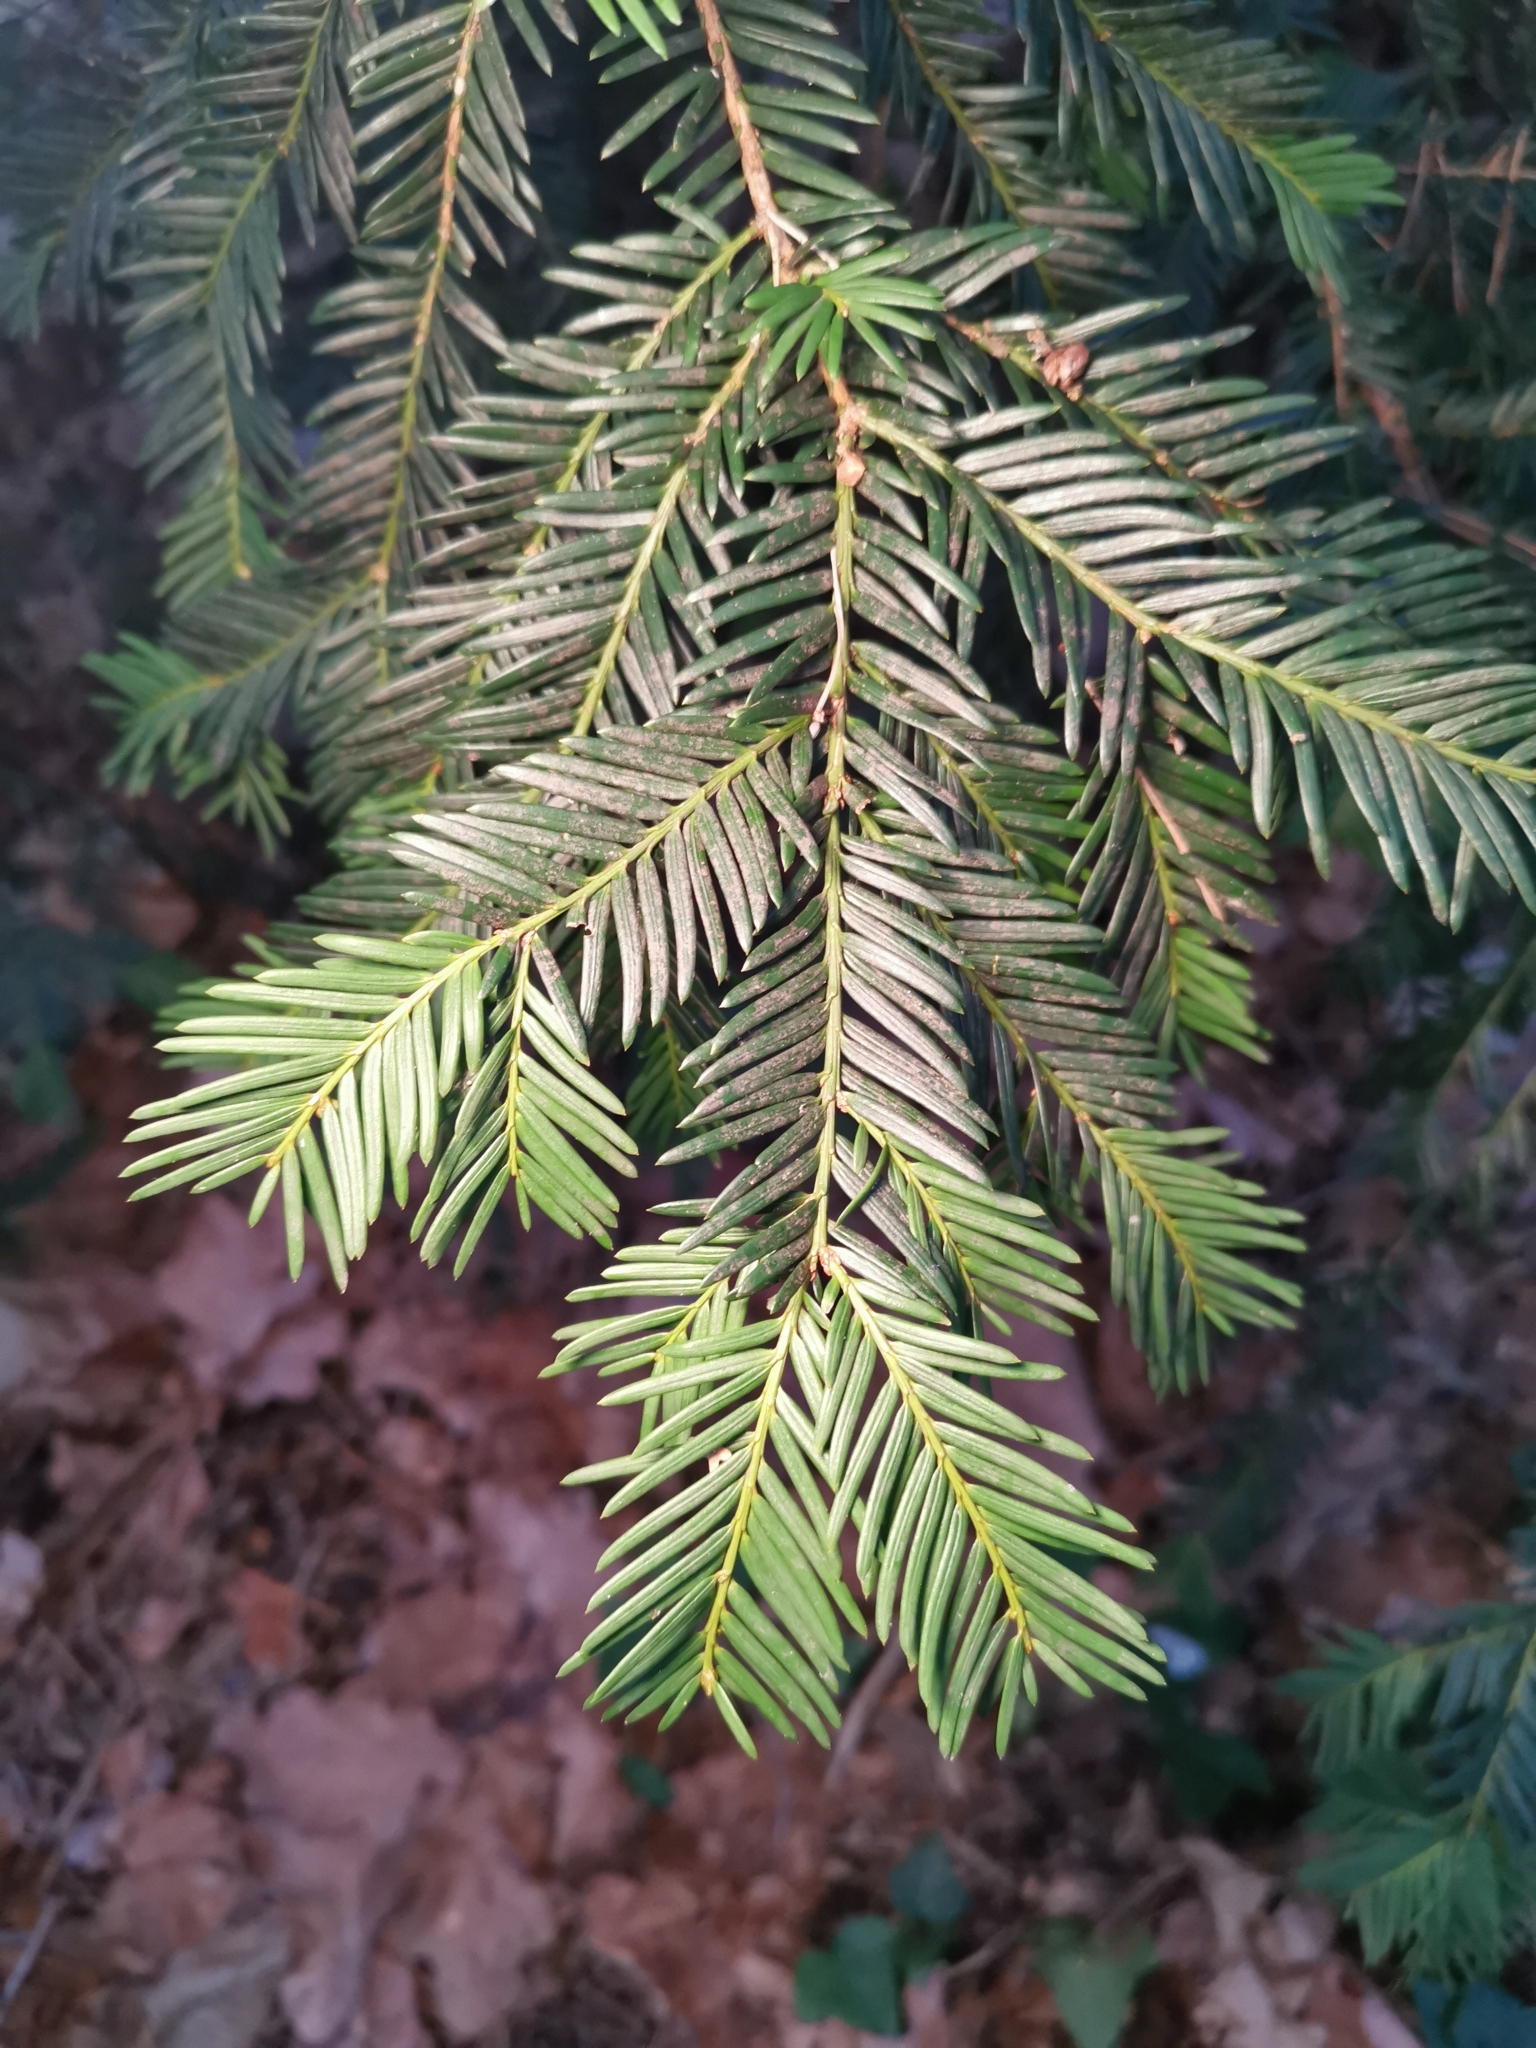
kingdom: Plantae
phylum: Tracheophyta
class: Pinopsida
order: Pinales
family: Taxaceae
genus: Taxus
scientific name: Taxus baccata
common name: Yew
